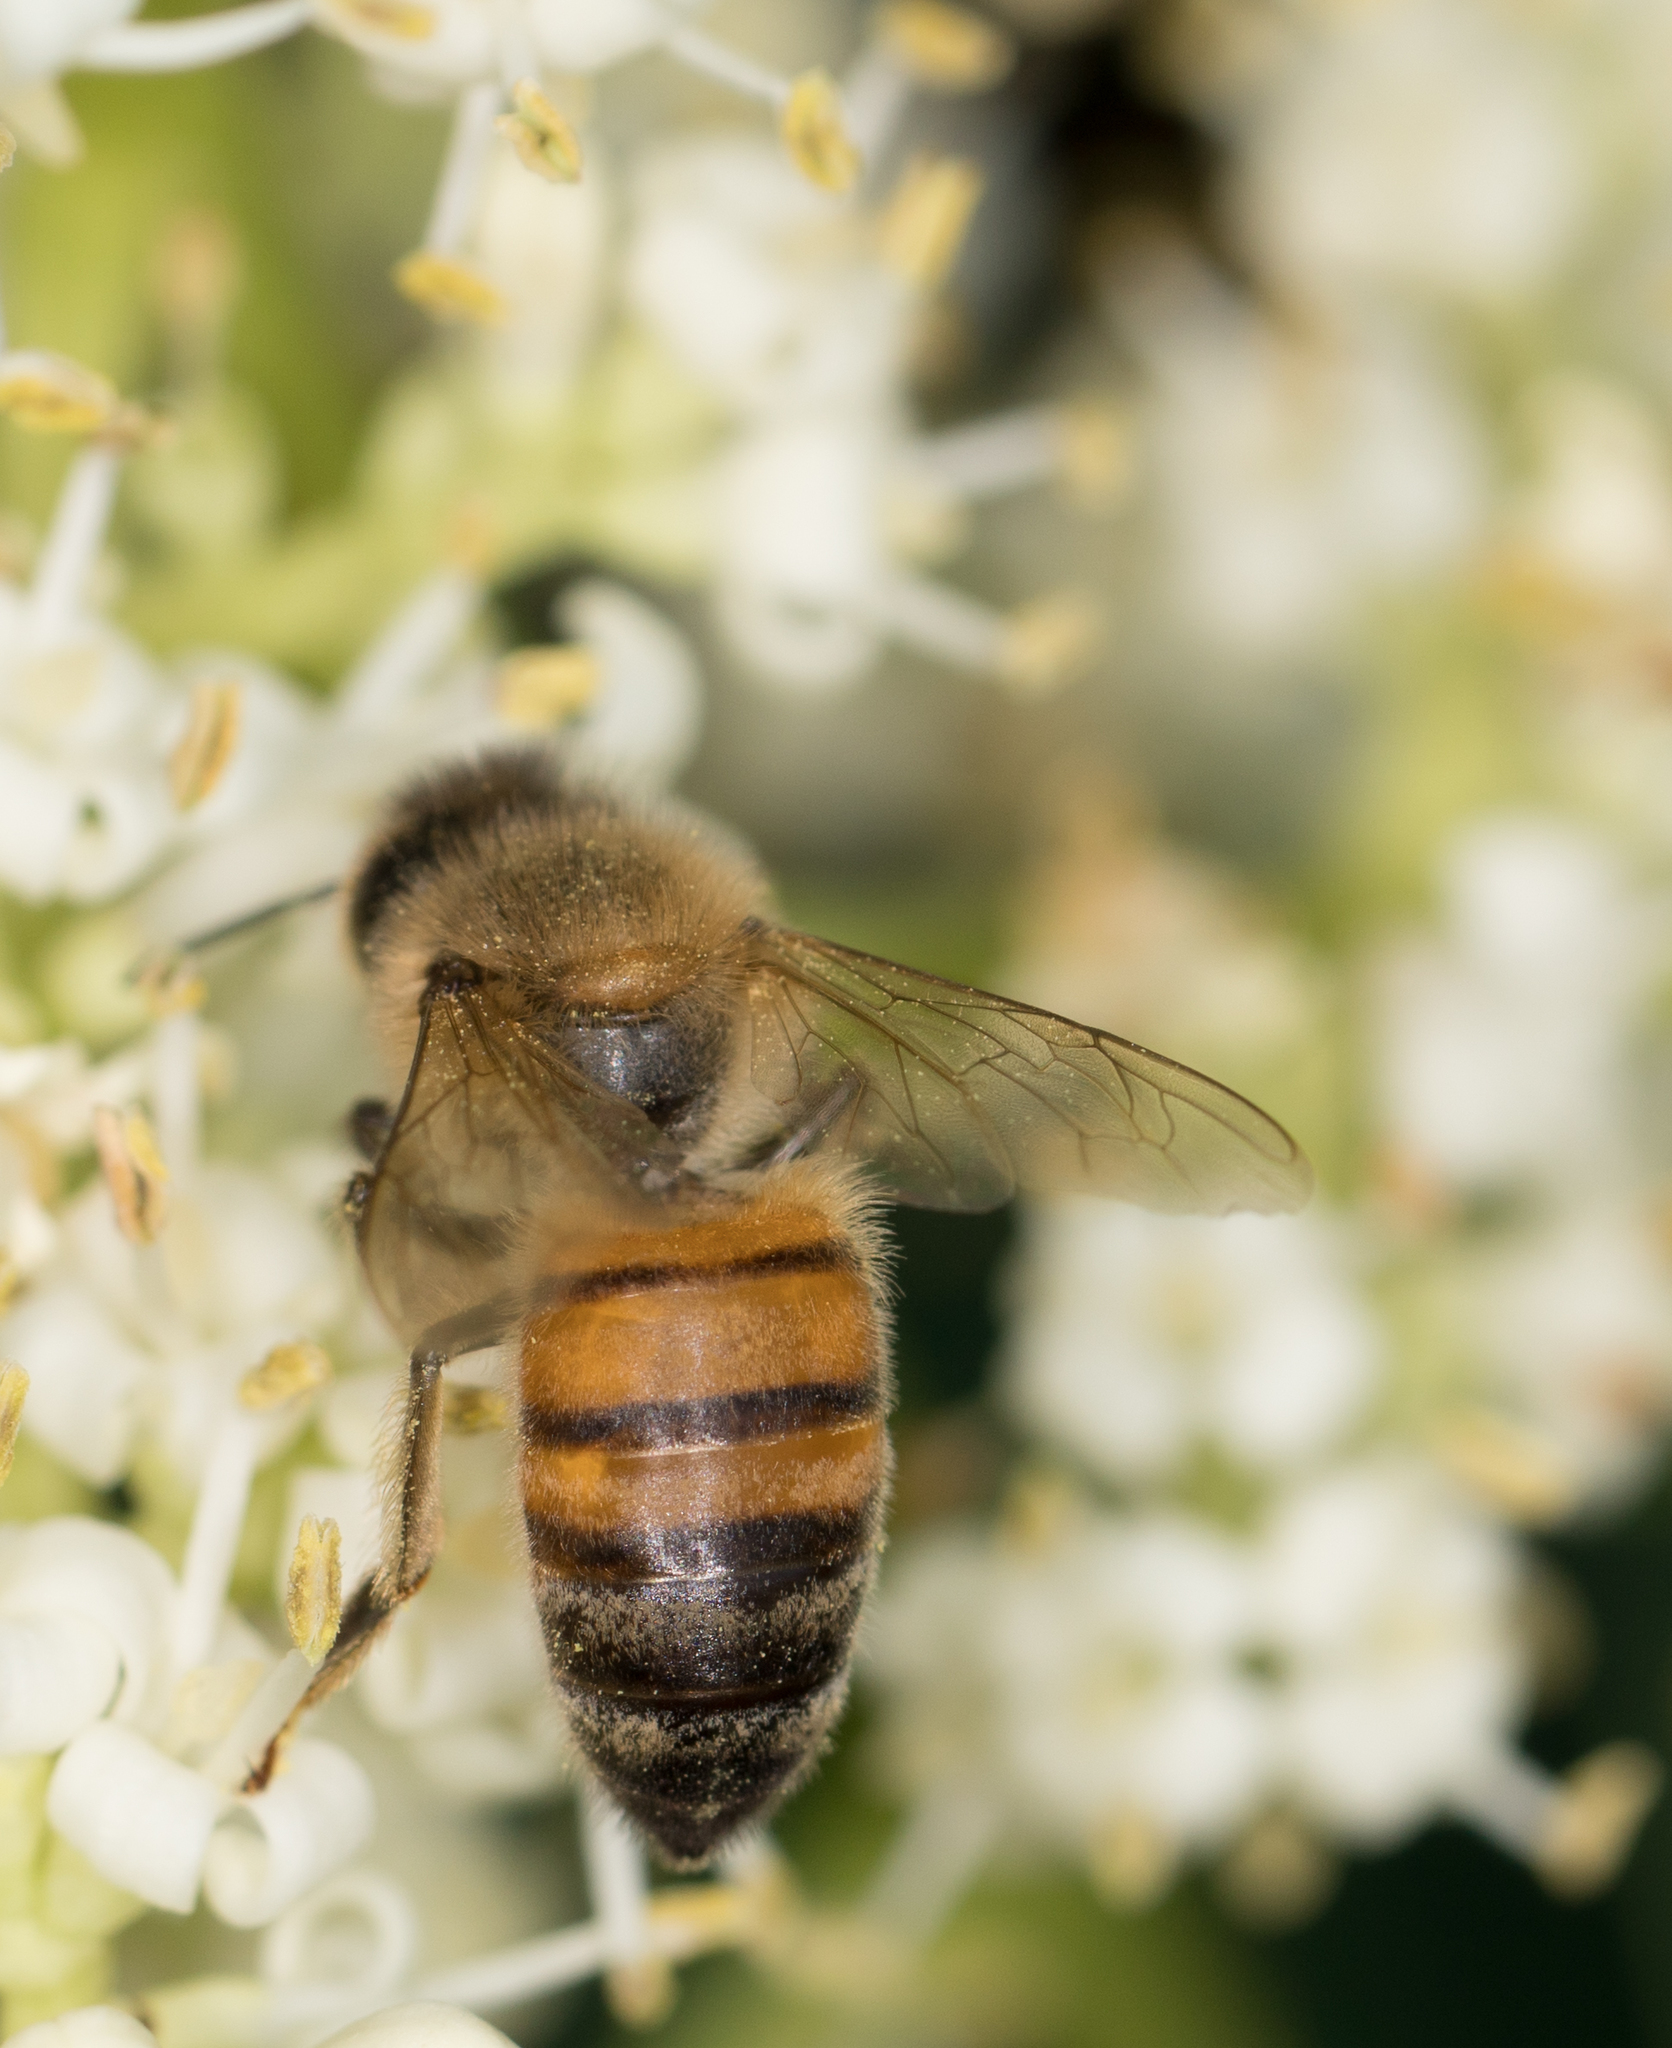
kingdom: Animalia
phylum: Arthropoda
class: Insecta
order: Hymenoptera
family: Apidae
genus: Apis
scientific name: Apis mellifera
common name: Honey bee
